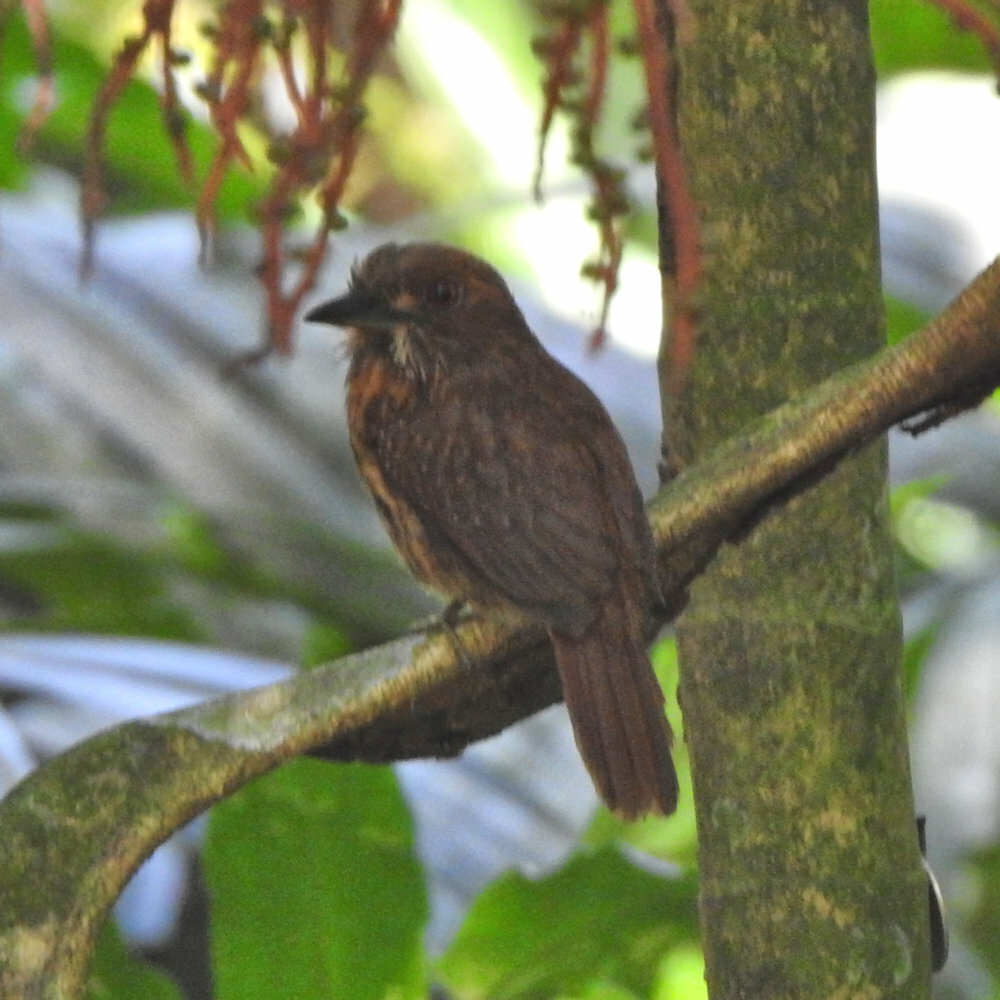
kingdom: Animalia
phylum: Chordata
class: Aves
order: Piciformes
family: Bucconidae
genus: Malacoptila
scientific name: Malacoptila panamensis
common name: White-whiskered puffbird
